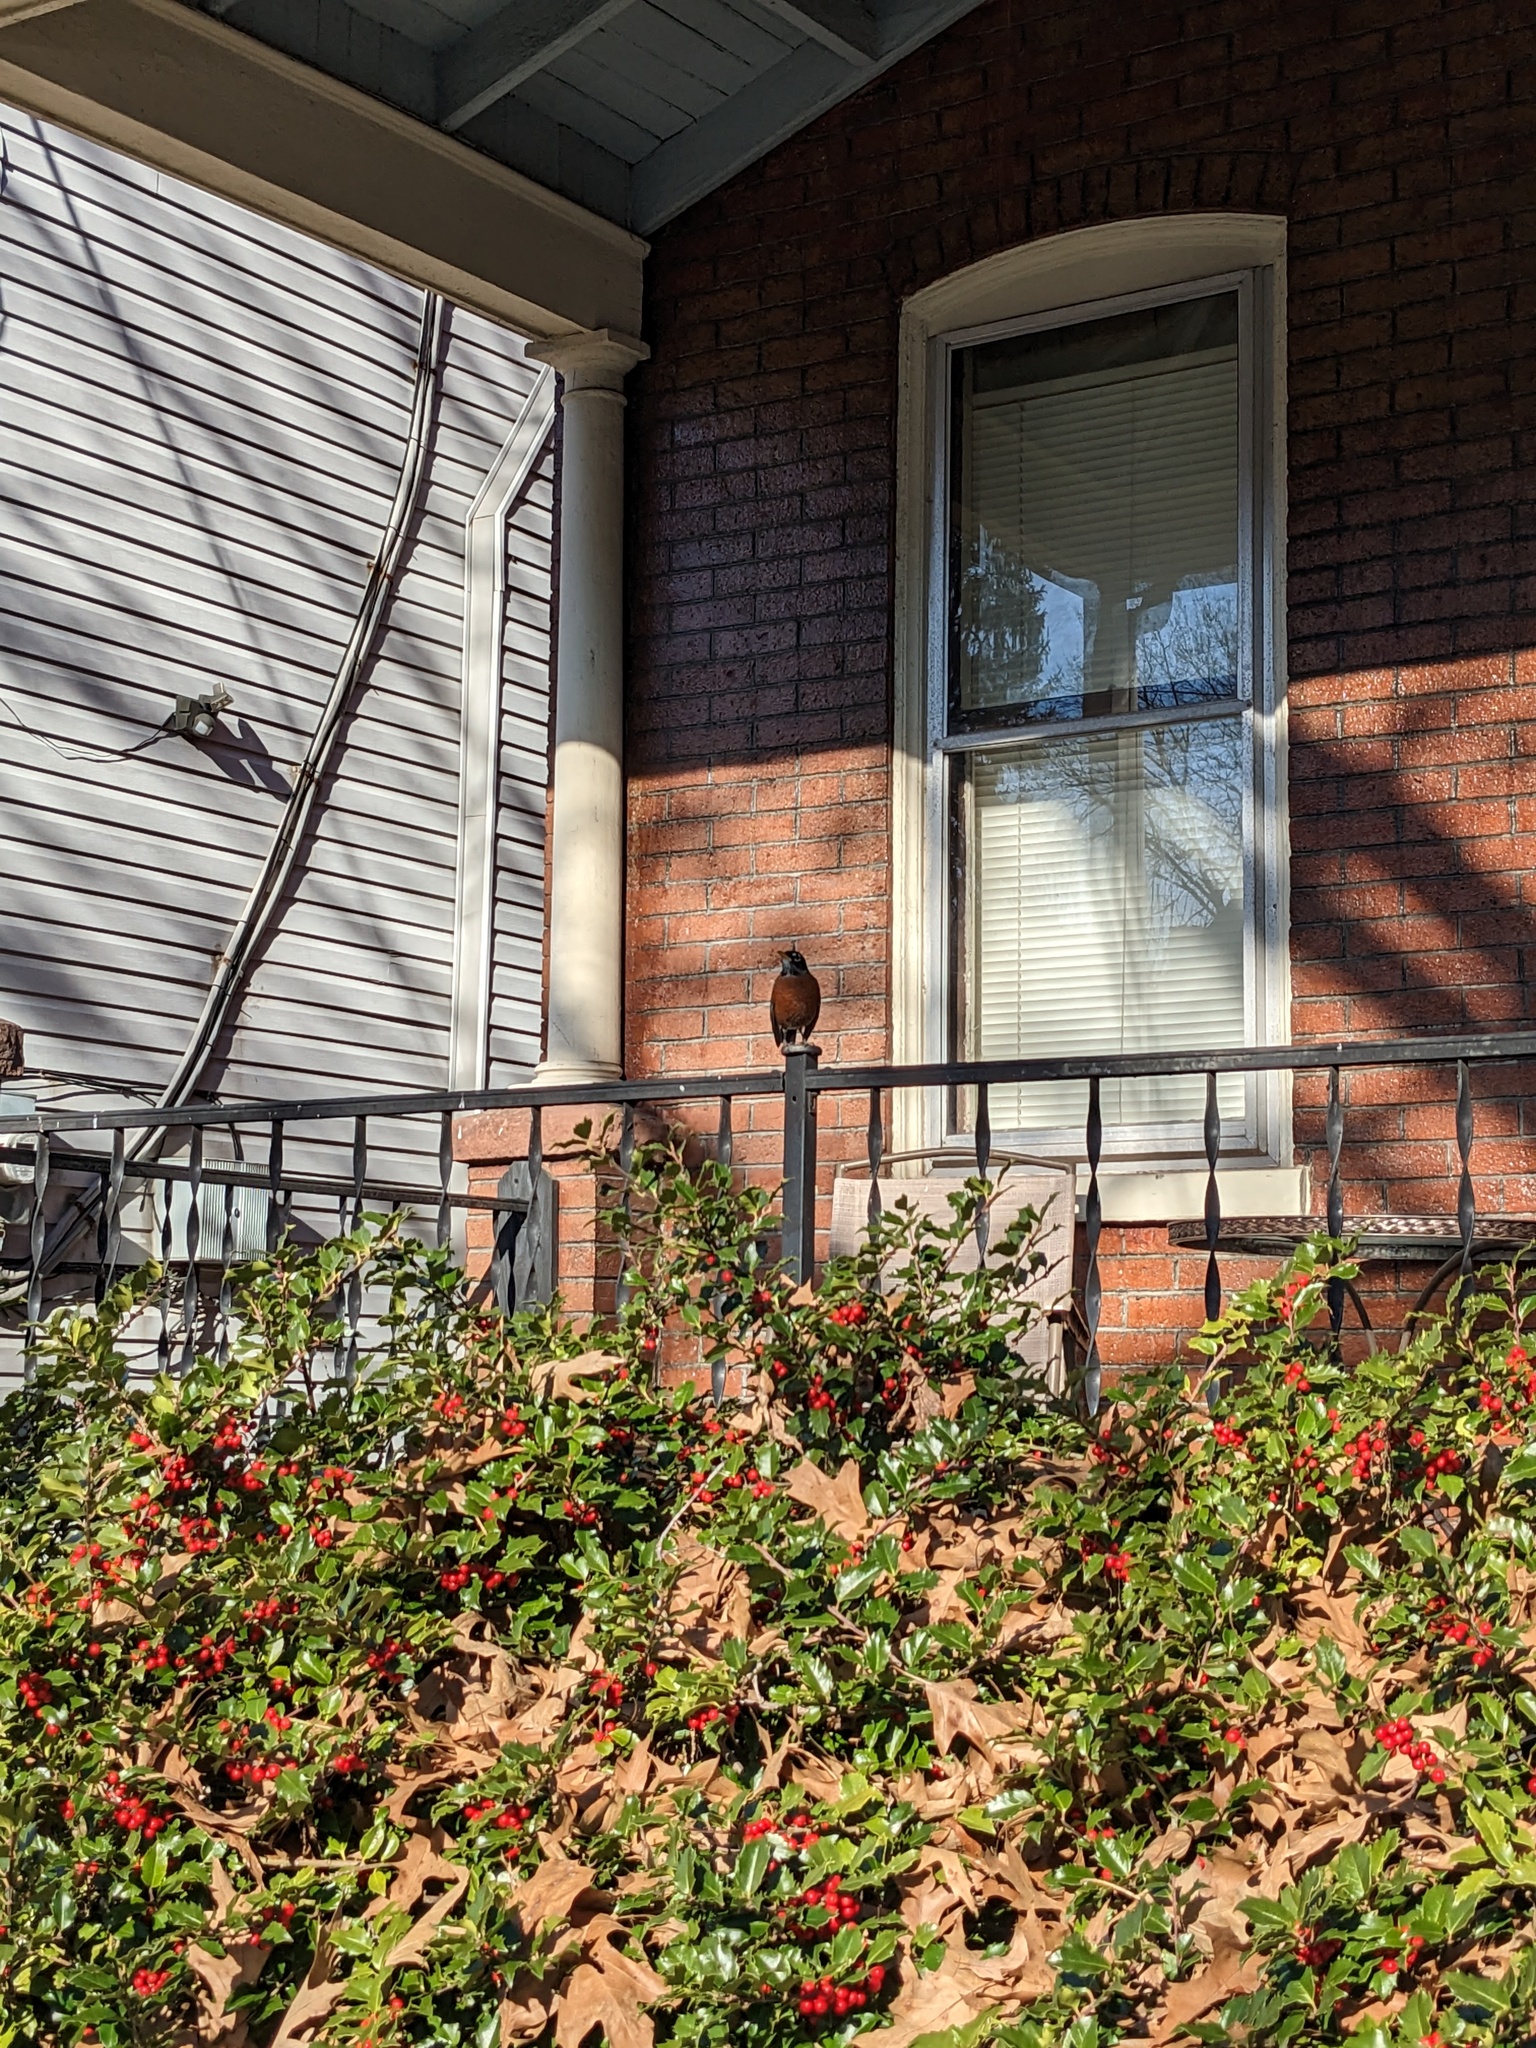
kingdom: Animalia
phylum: Chordata
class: Aves
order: Passeriformes
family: Turdidae
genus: Turdus
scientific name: Turdus migratorius
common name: American robin
